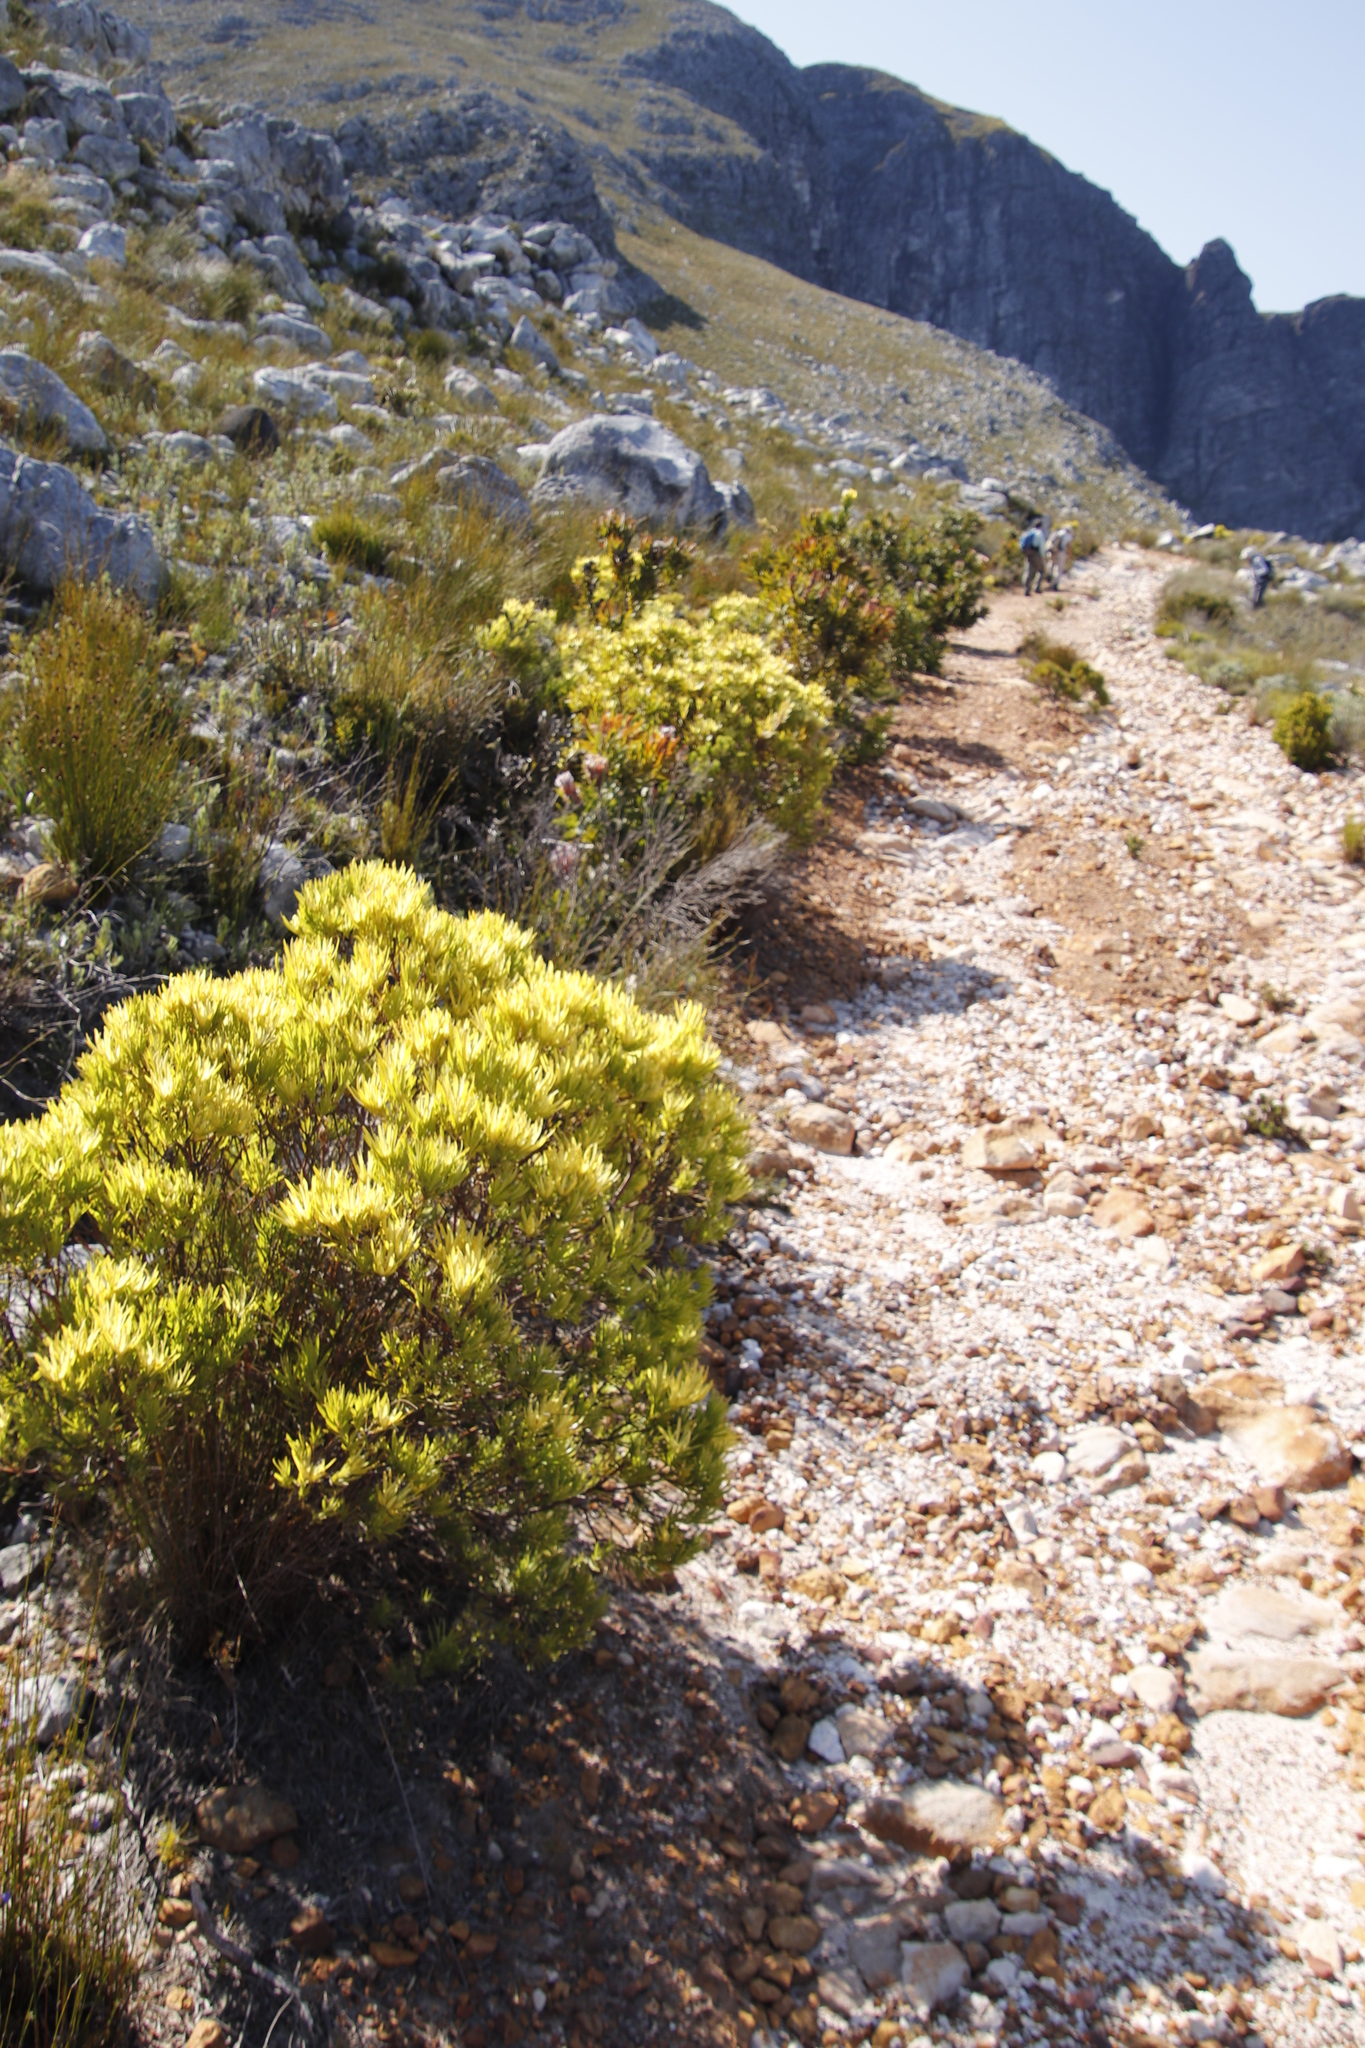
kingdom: Plantae
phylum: Tracheophyta
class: Magnoliopsida
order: Proteales
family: Proteaceae
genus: Leucadendron
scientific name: Leucadendron xanthoconus
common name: Sickle-leaf conebush
